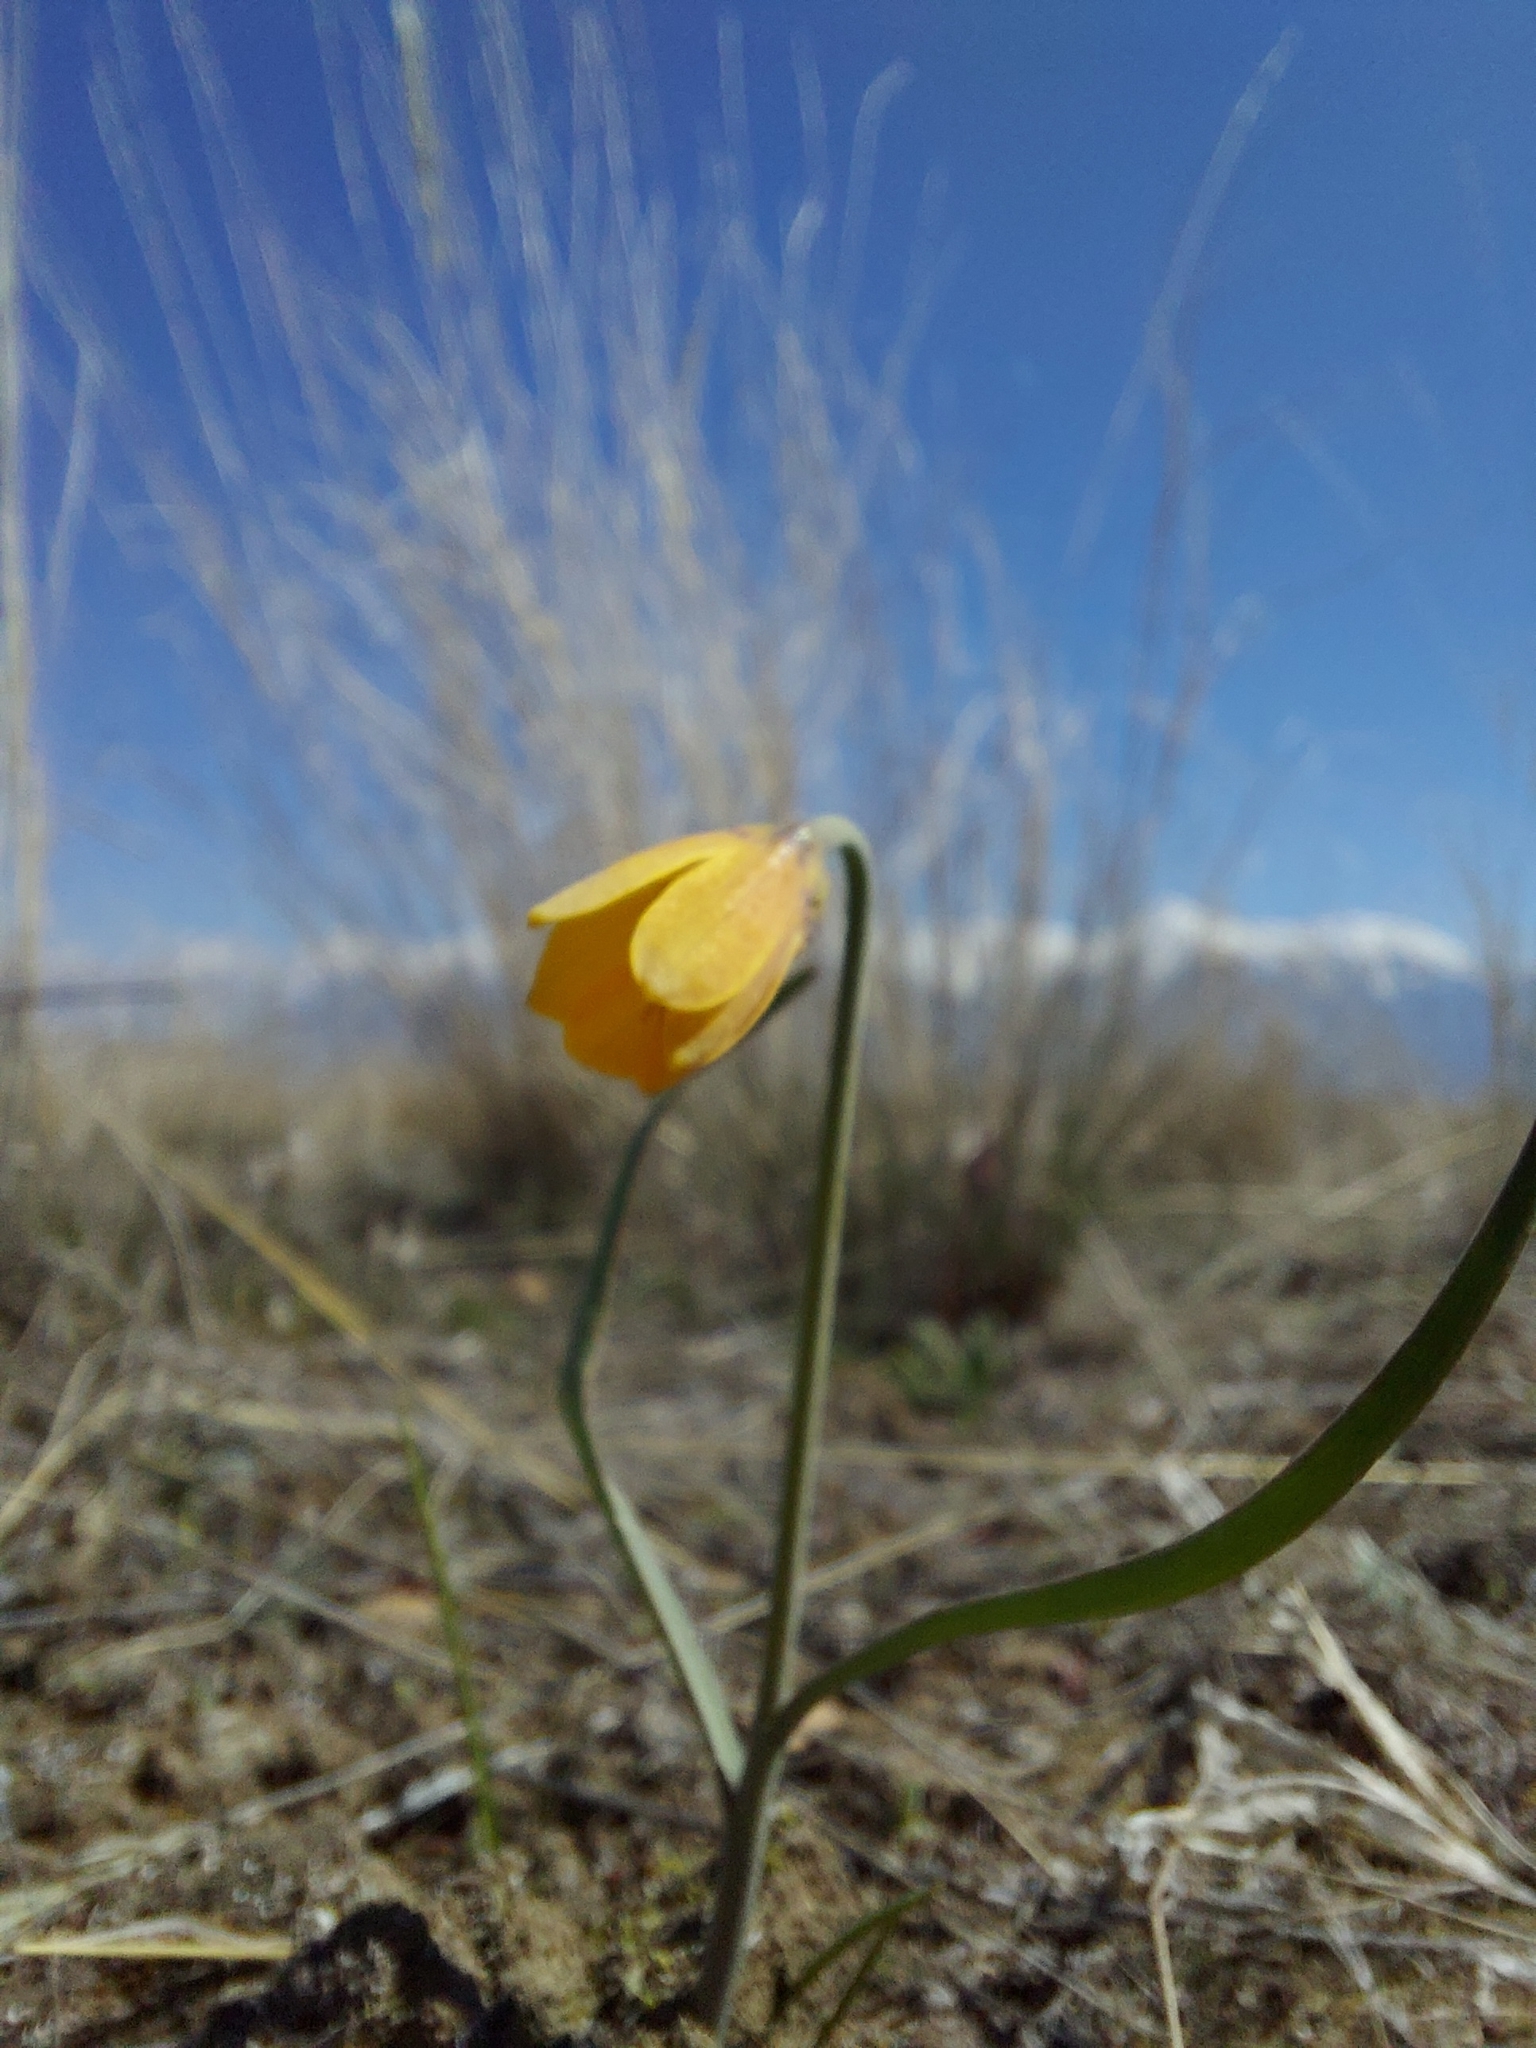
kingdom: Plantae
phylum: Tracheophyta
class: Liliopsida
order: Liliales
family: Liliaceae
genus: Fritillaria
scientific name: Fritillaria pudica
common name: Yellow fritillary
